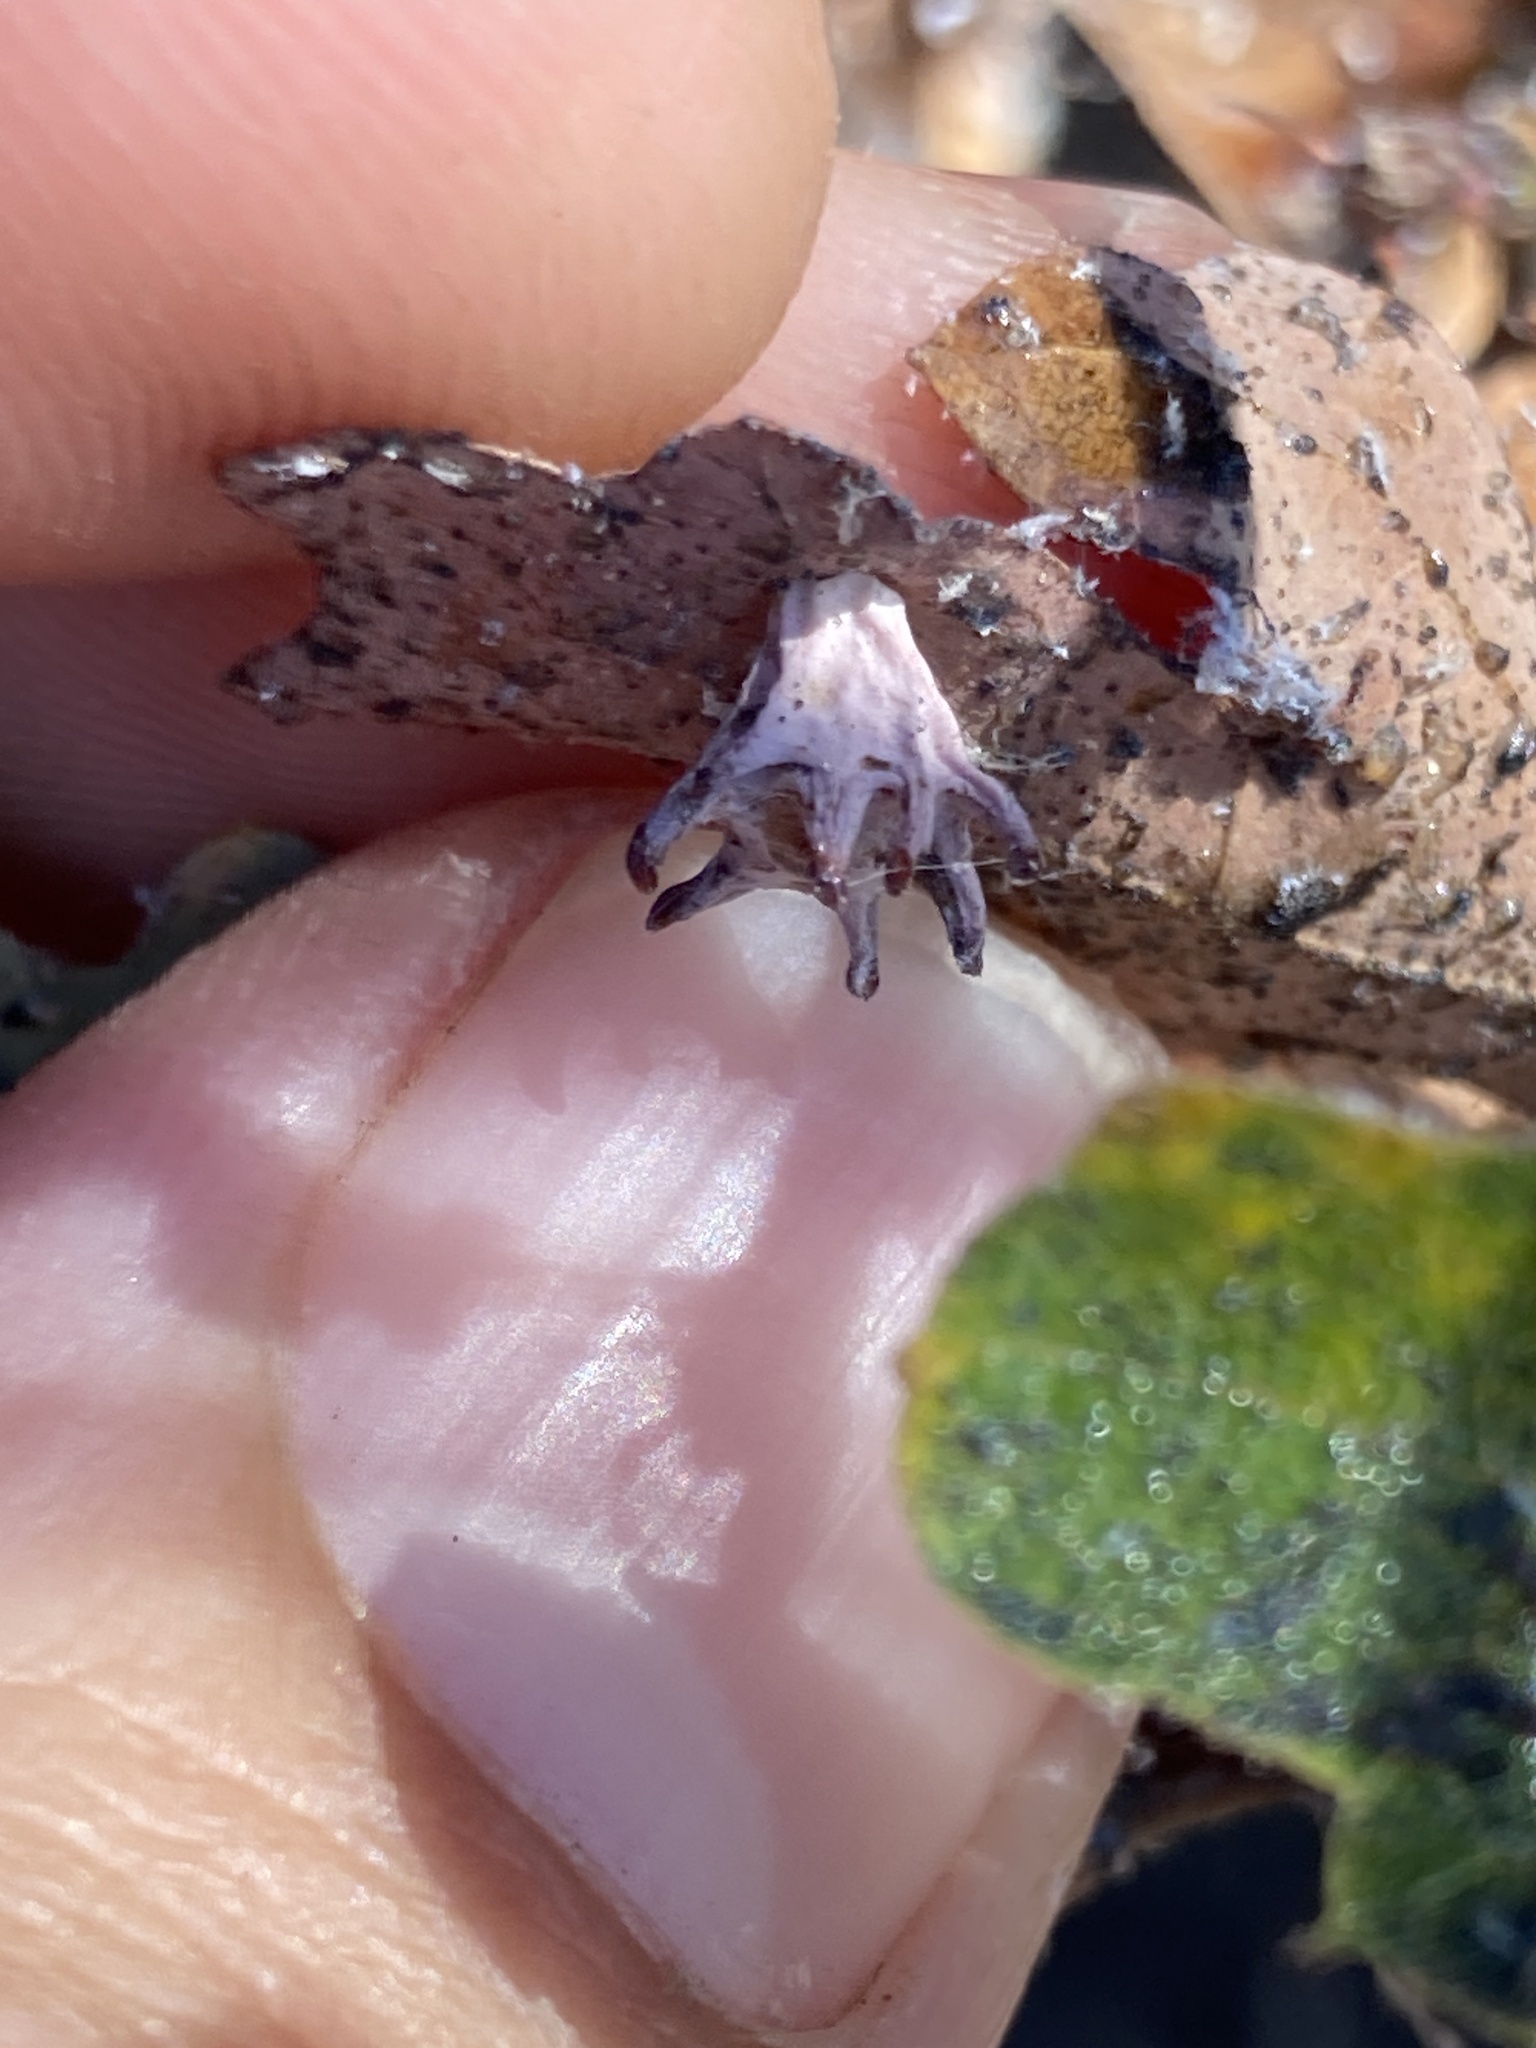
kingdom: Animalia
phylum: Arthropoda
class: Insecta
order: Hymenoptera
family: Cynipidae
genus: Cynips
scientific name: Cynips douglasi
